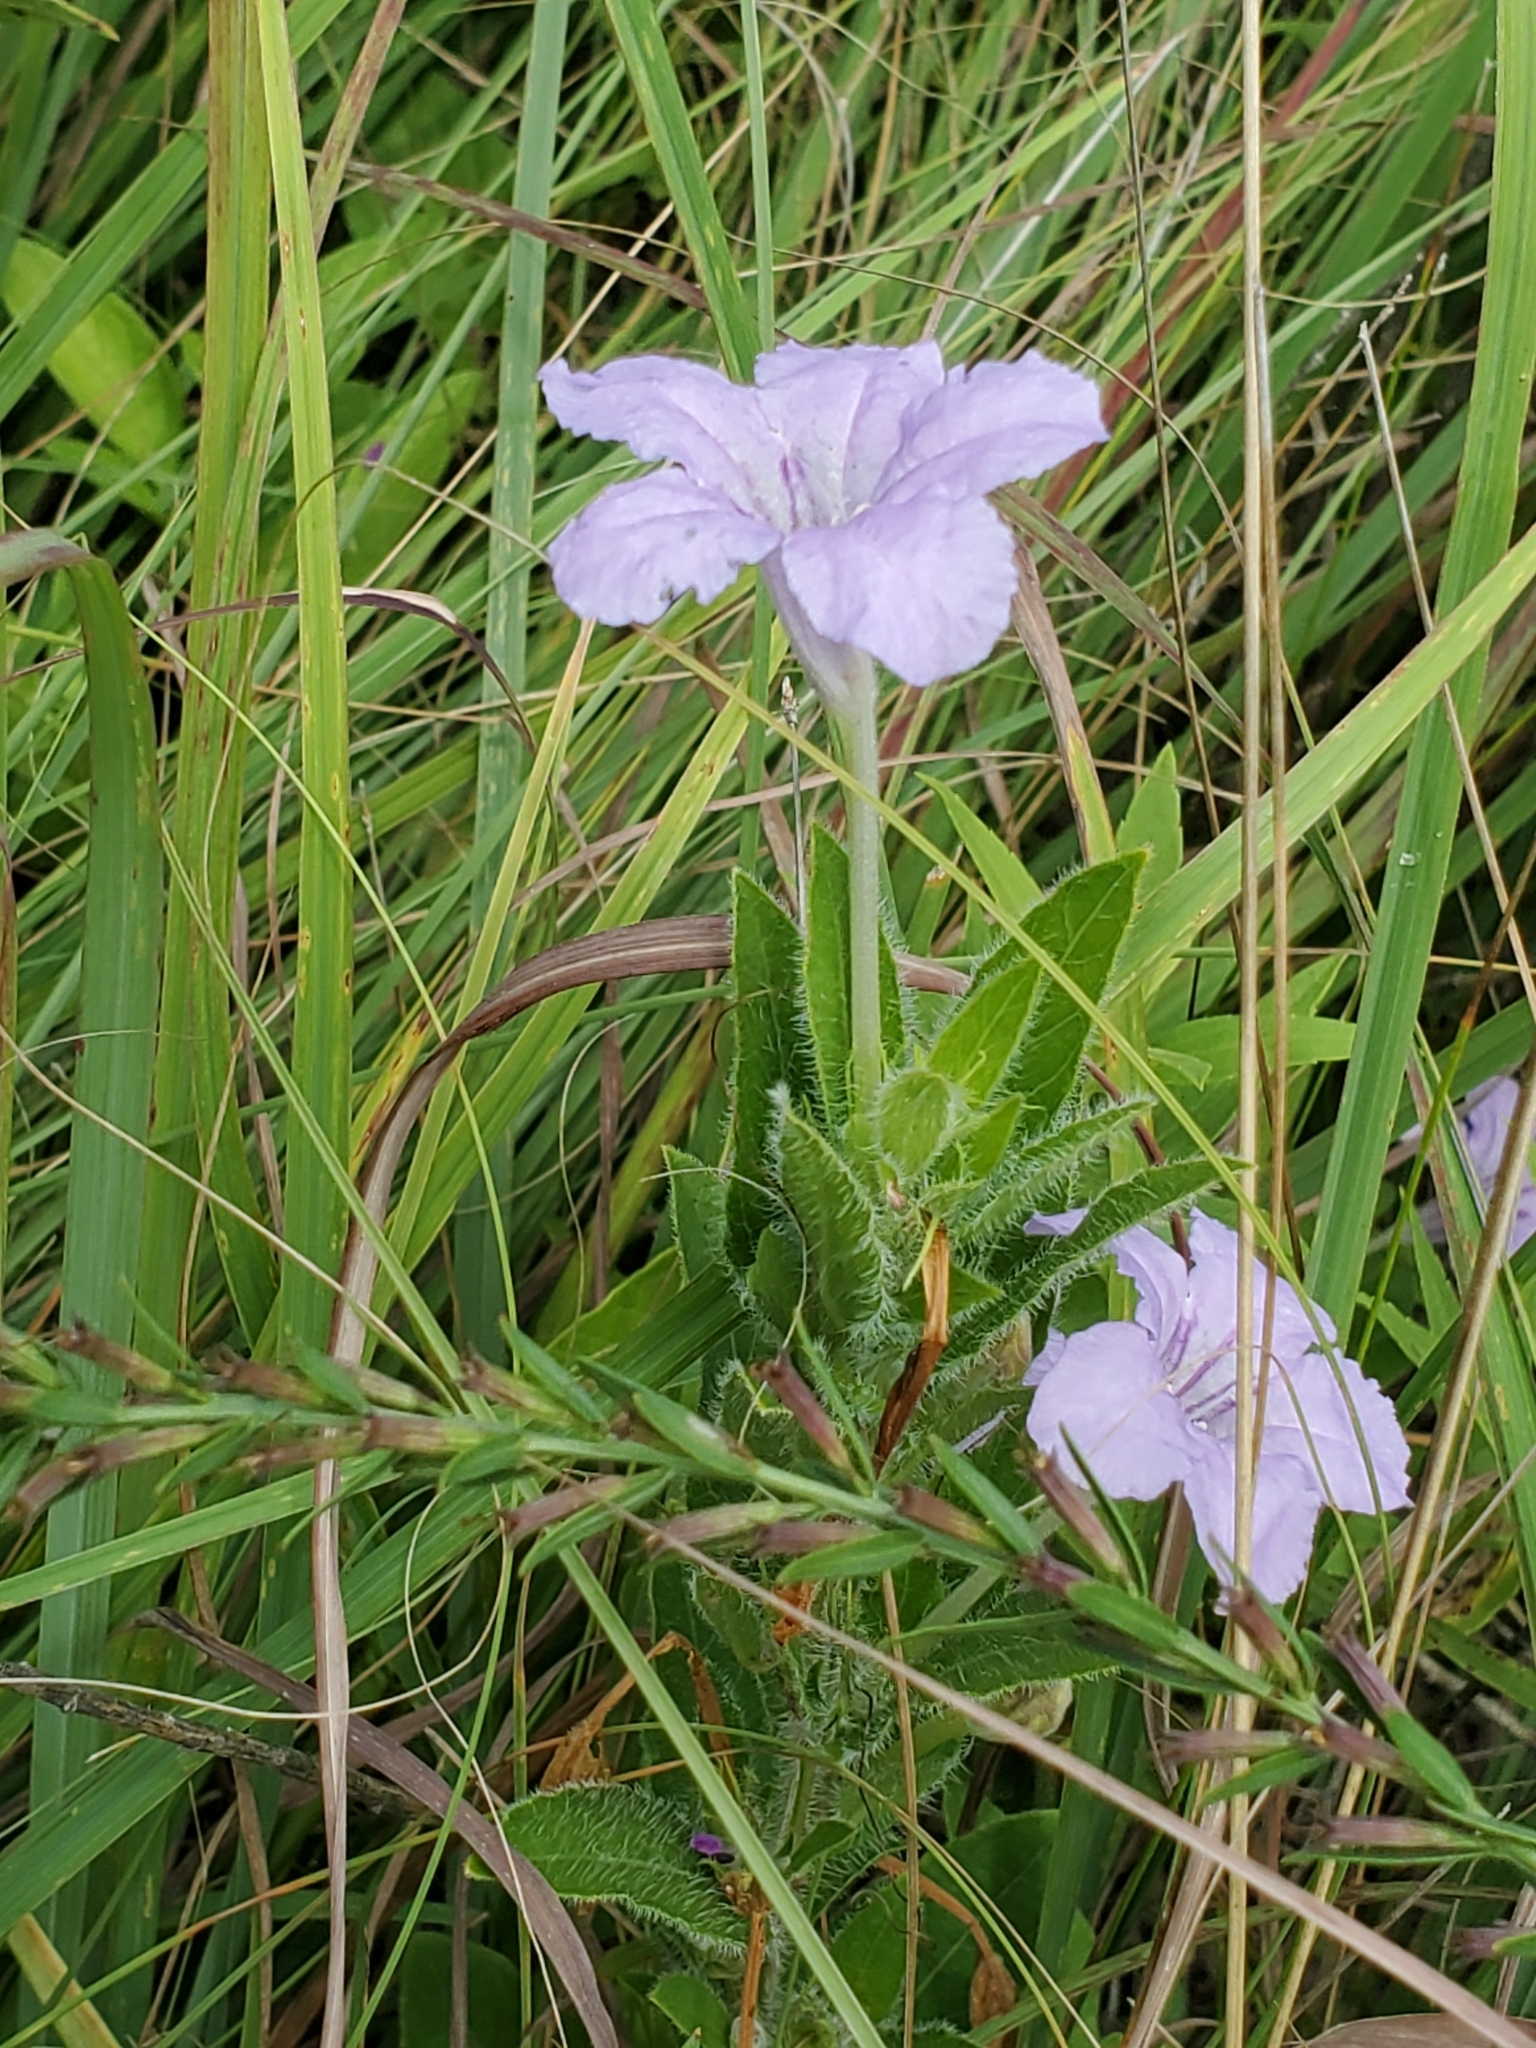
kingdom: Plantae
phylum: Tracheophyta
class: Magnoliopsida
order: Lamiales
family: Acanthaceae
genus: Ruellia
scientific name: Ruellia humilis
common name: Fringe-leaf ruellia
